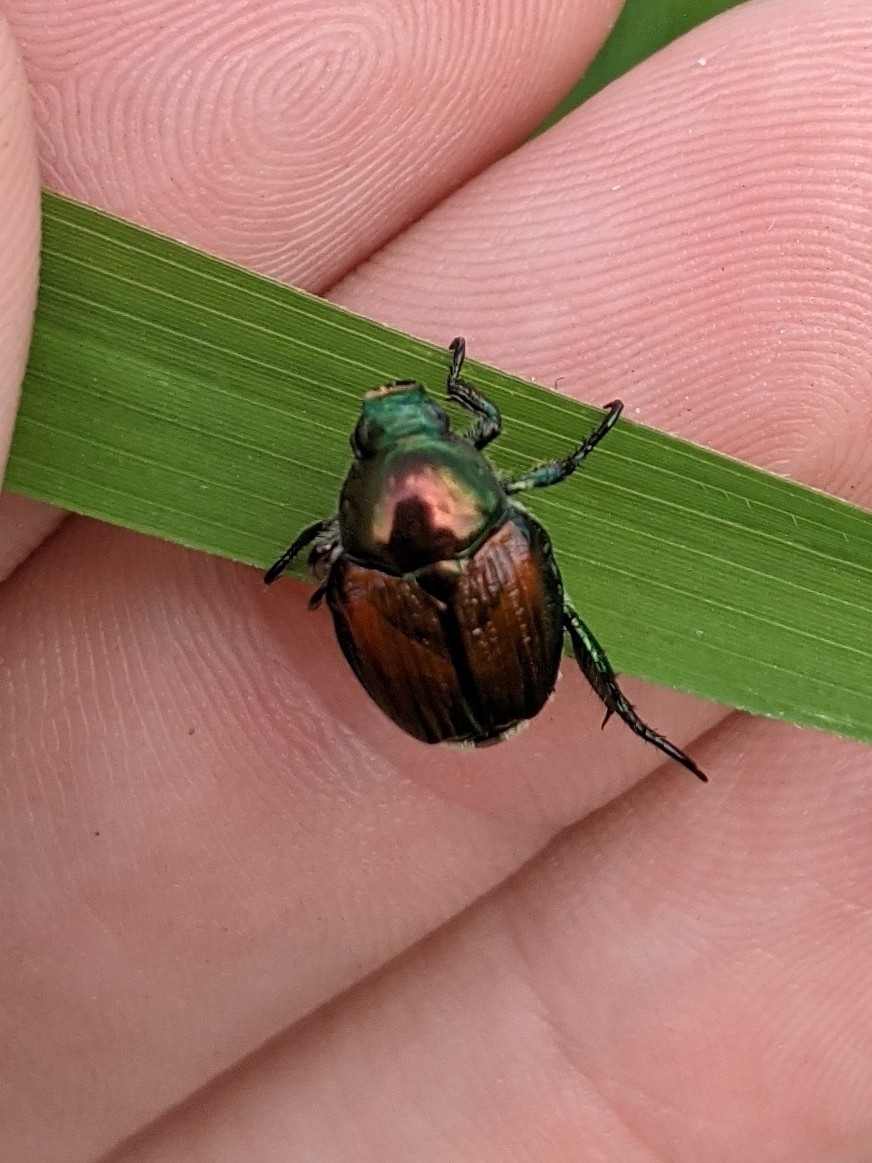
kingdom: Animalia
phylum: Arthropoda
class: Insecta
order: Coleoptera
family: Scarabaeidae
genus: Popillia
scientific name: Popillia japonica
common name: Japanese beetle
